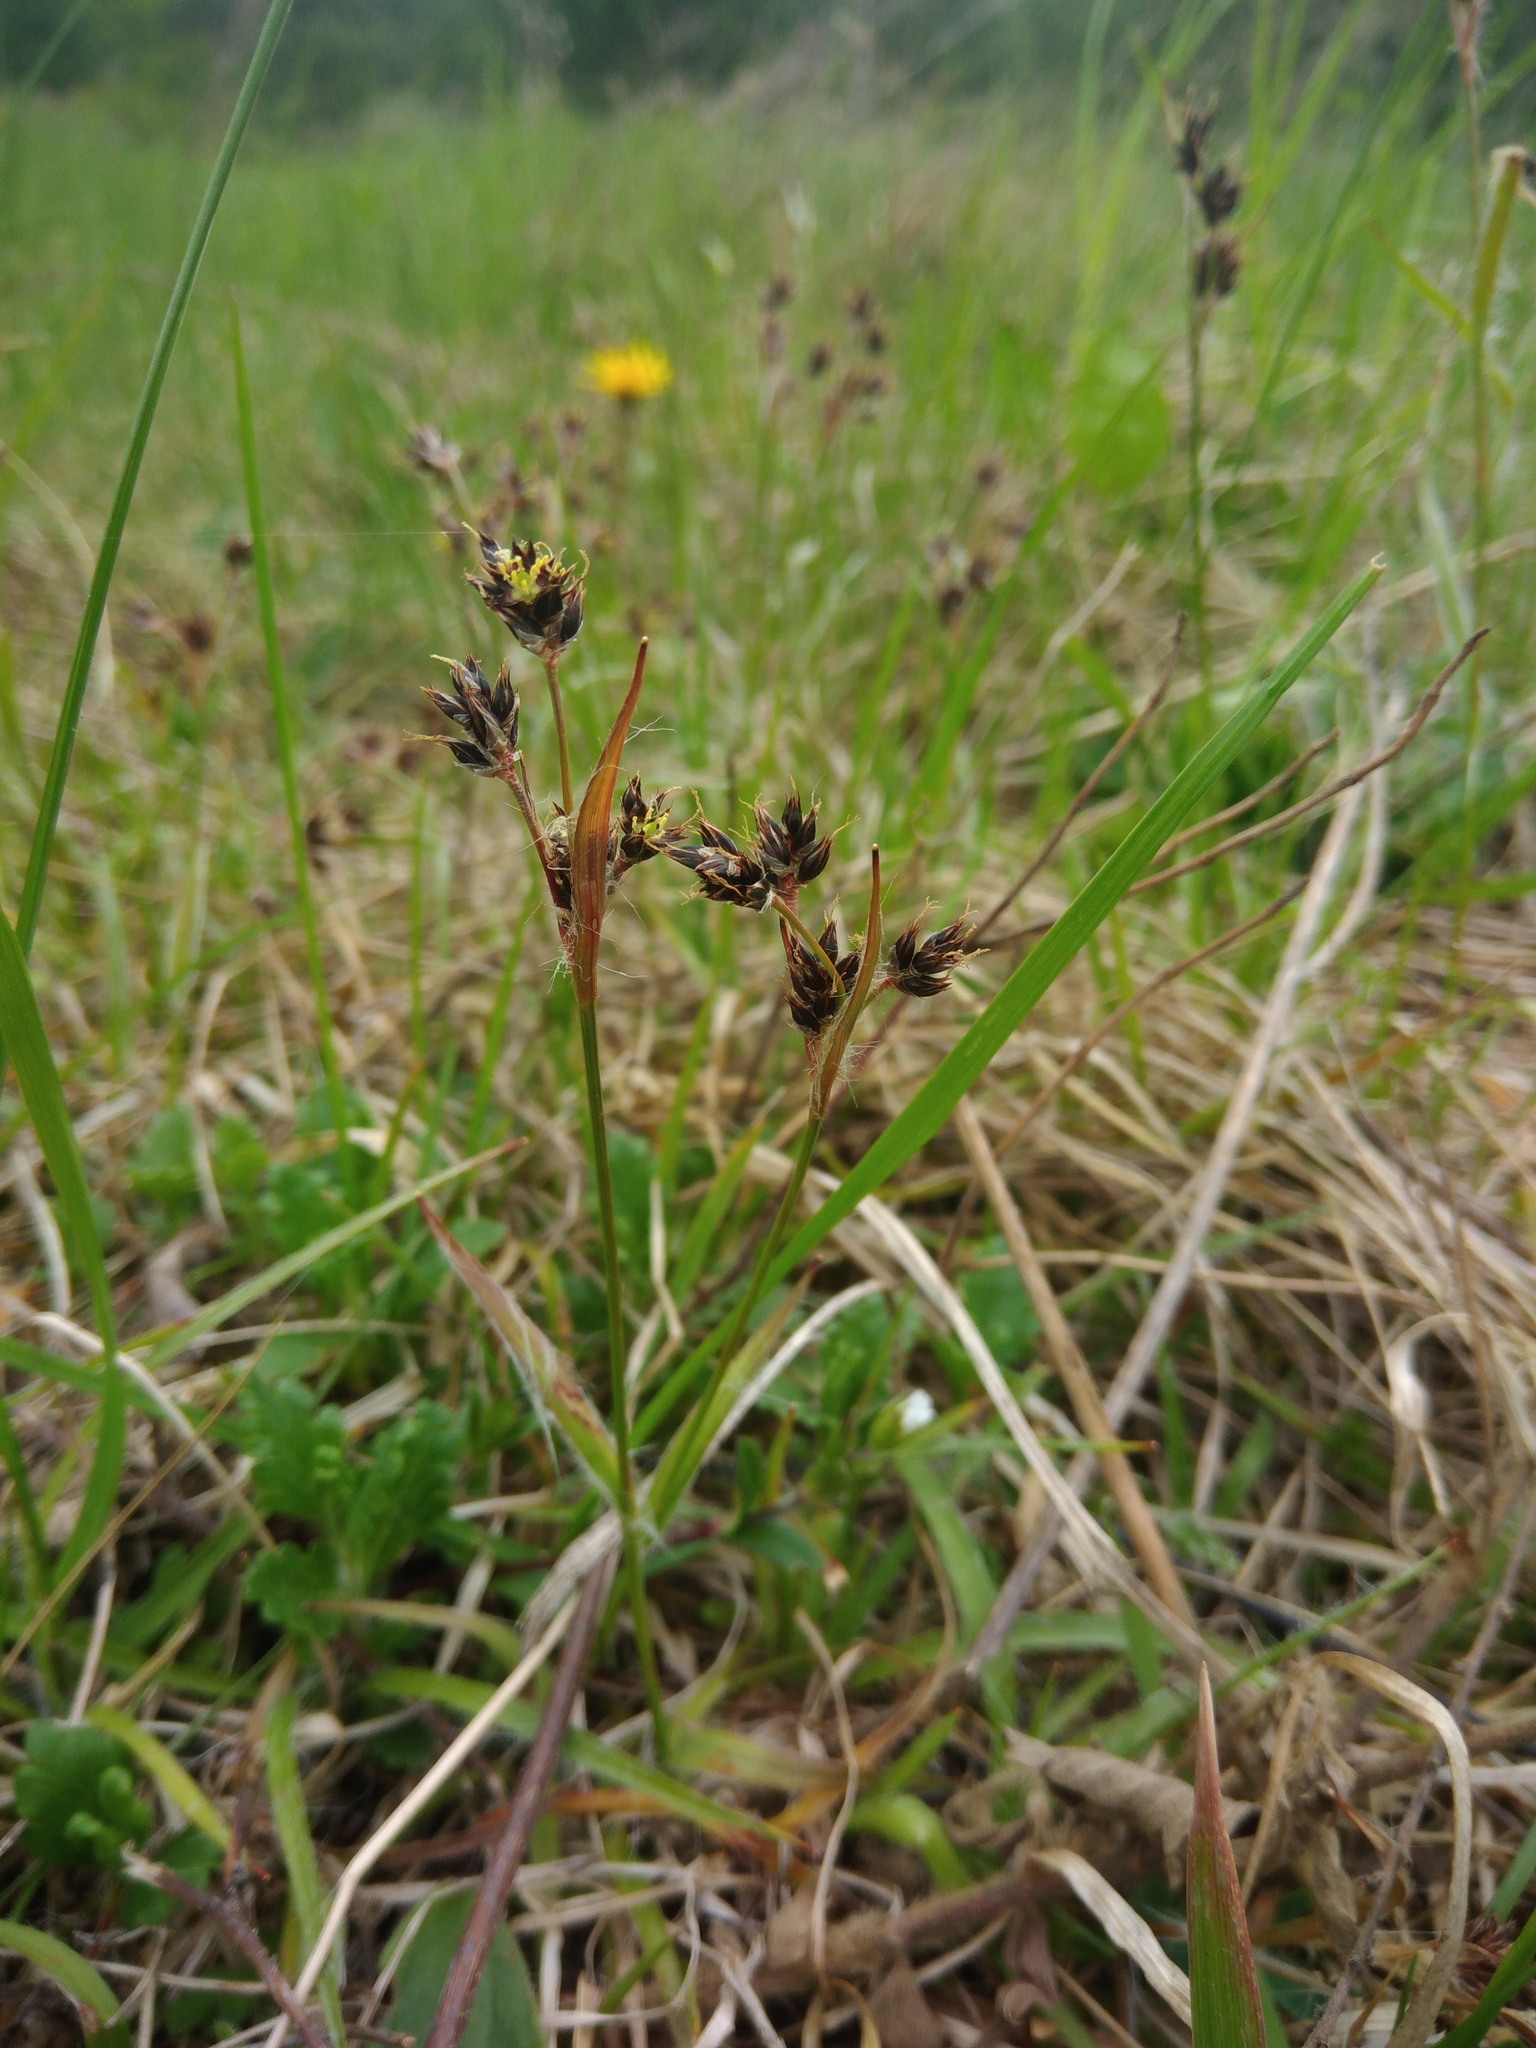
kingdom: Plantae
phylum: Tracheophyta
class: Liliopsida
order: Poales
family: Juncaceae
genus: Luzula
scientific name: Luzula campestris
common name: Field wood-rush
